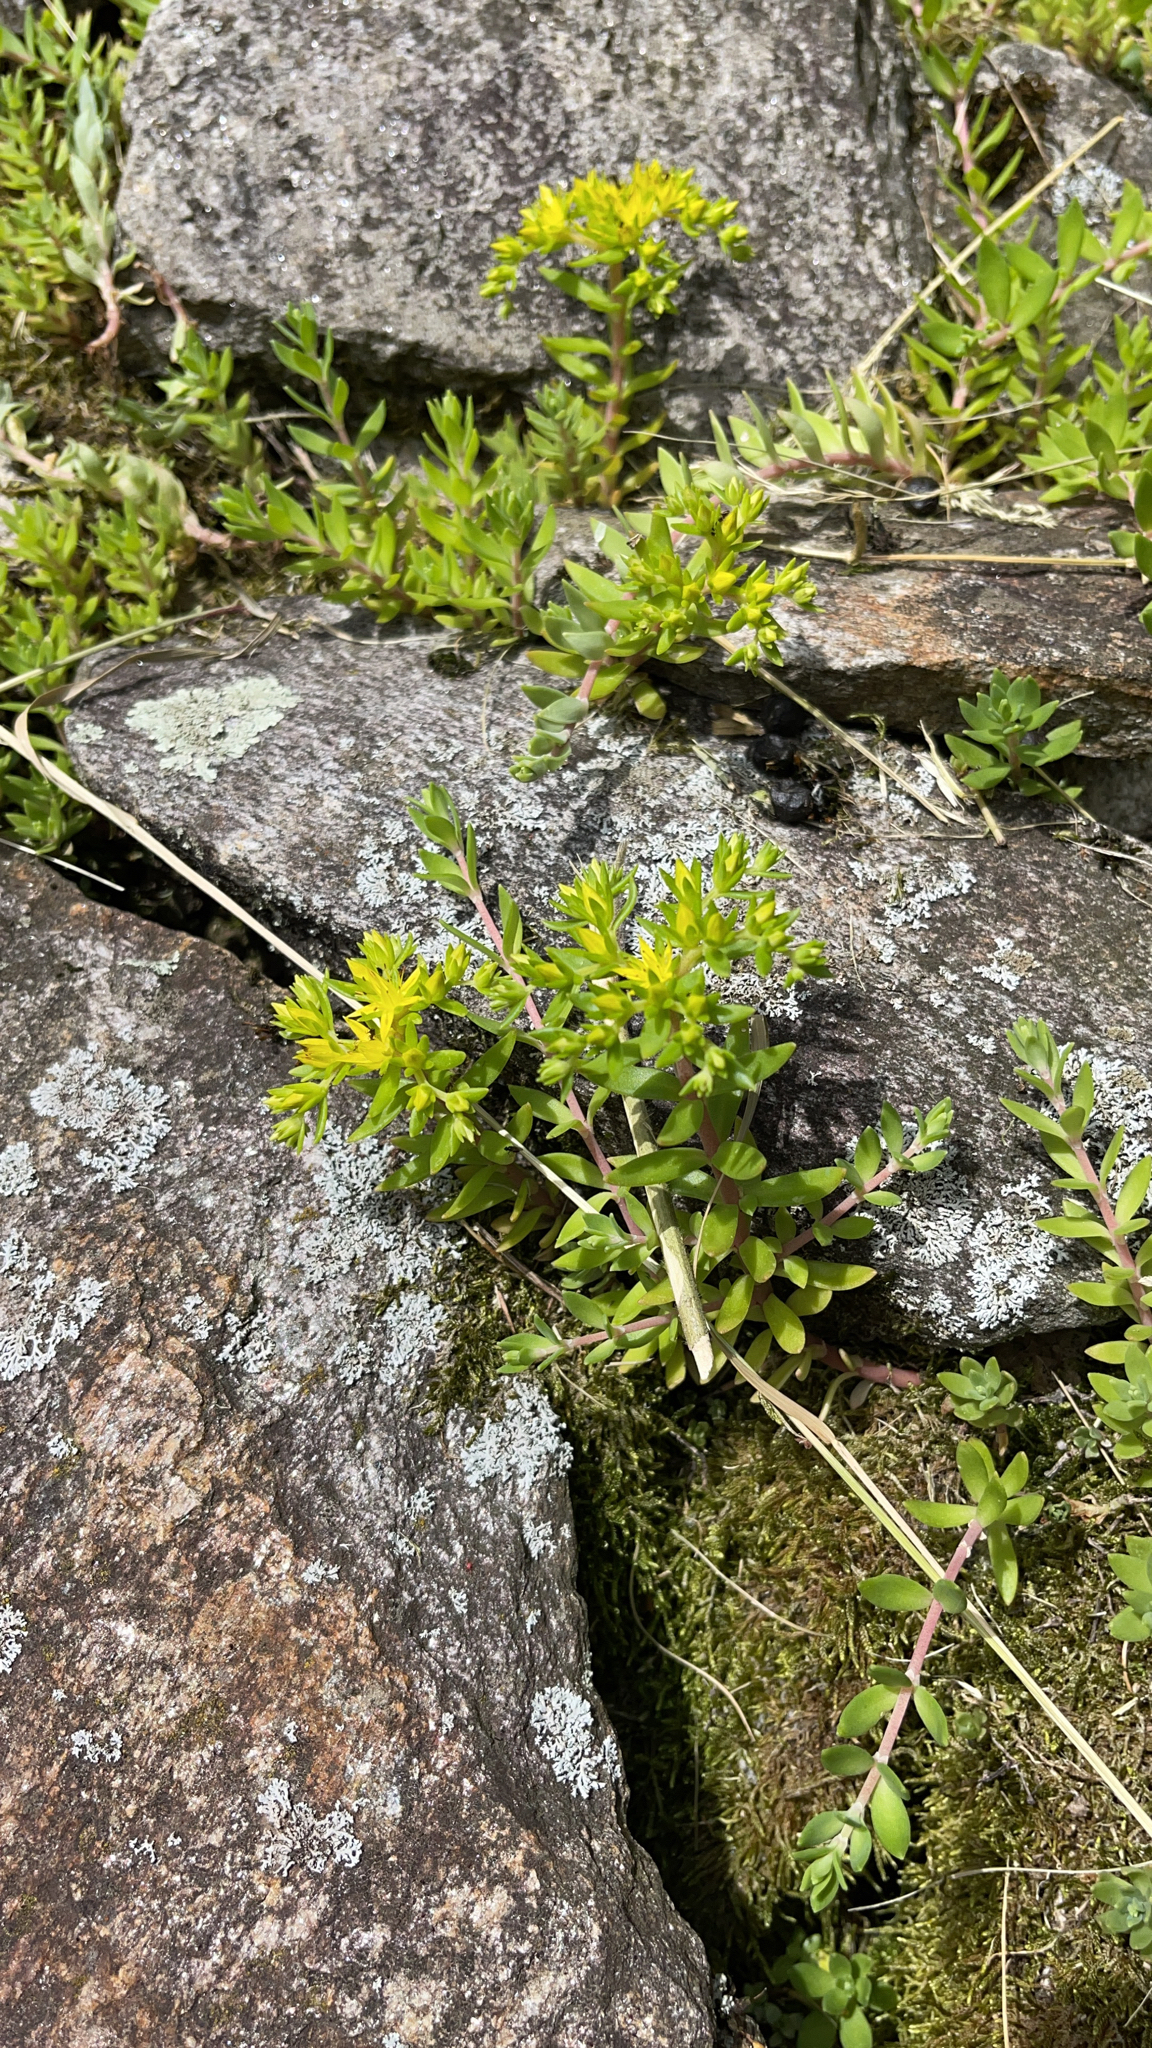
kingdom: Plantae
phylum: Tracheophyta
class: Magnoliopsida
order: Saxifragales
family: Crassulaceae
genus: Sedum
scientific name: Sedum sarmentosum
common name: Stringy stonecrop
